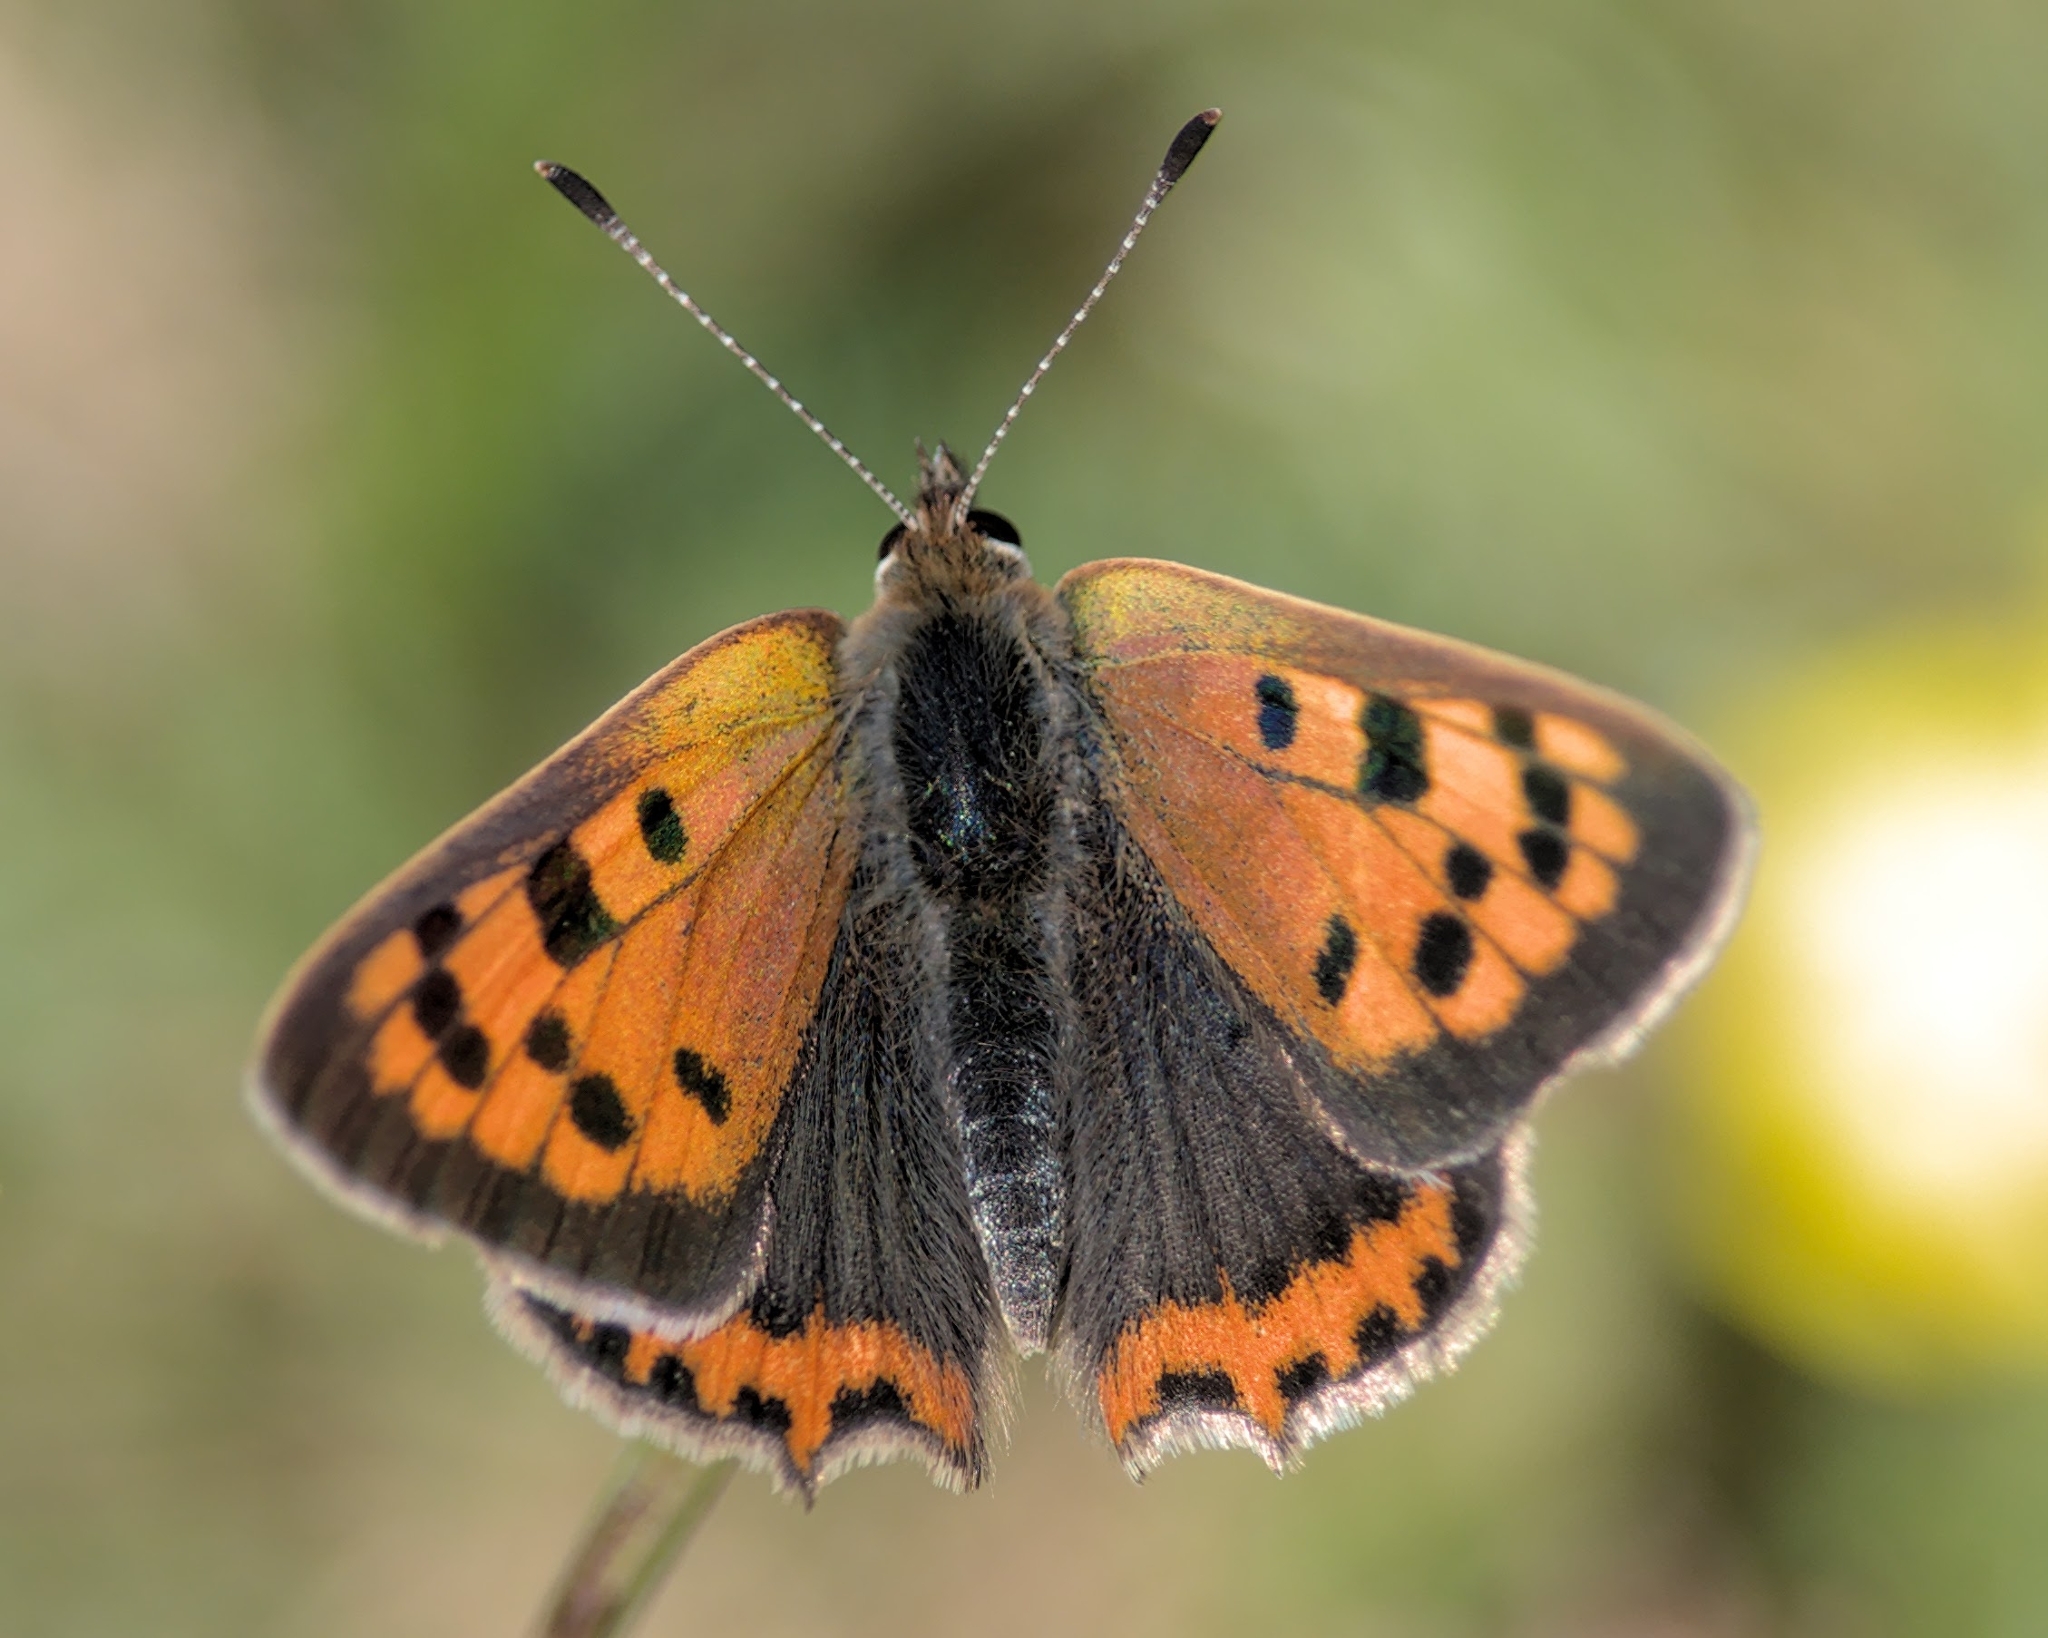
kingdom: Animalia
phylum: Arthropoda
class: Insecta
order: Lepidoptera
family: Lycaenidae
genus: Lycaena
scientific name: Lycaena phlaeas
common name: Small copper
